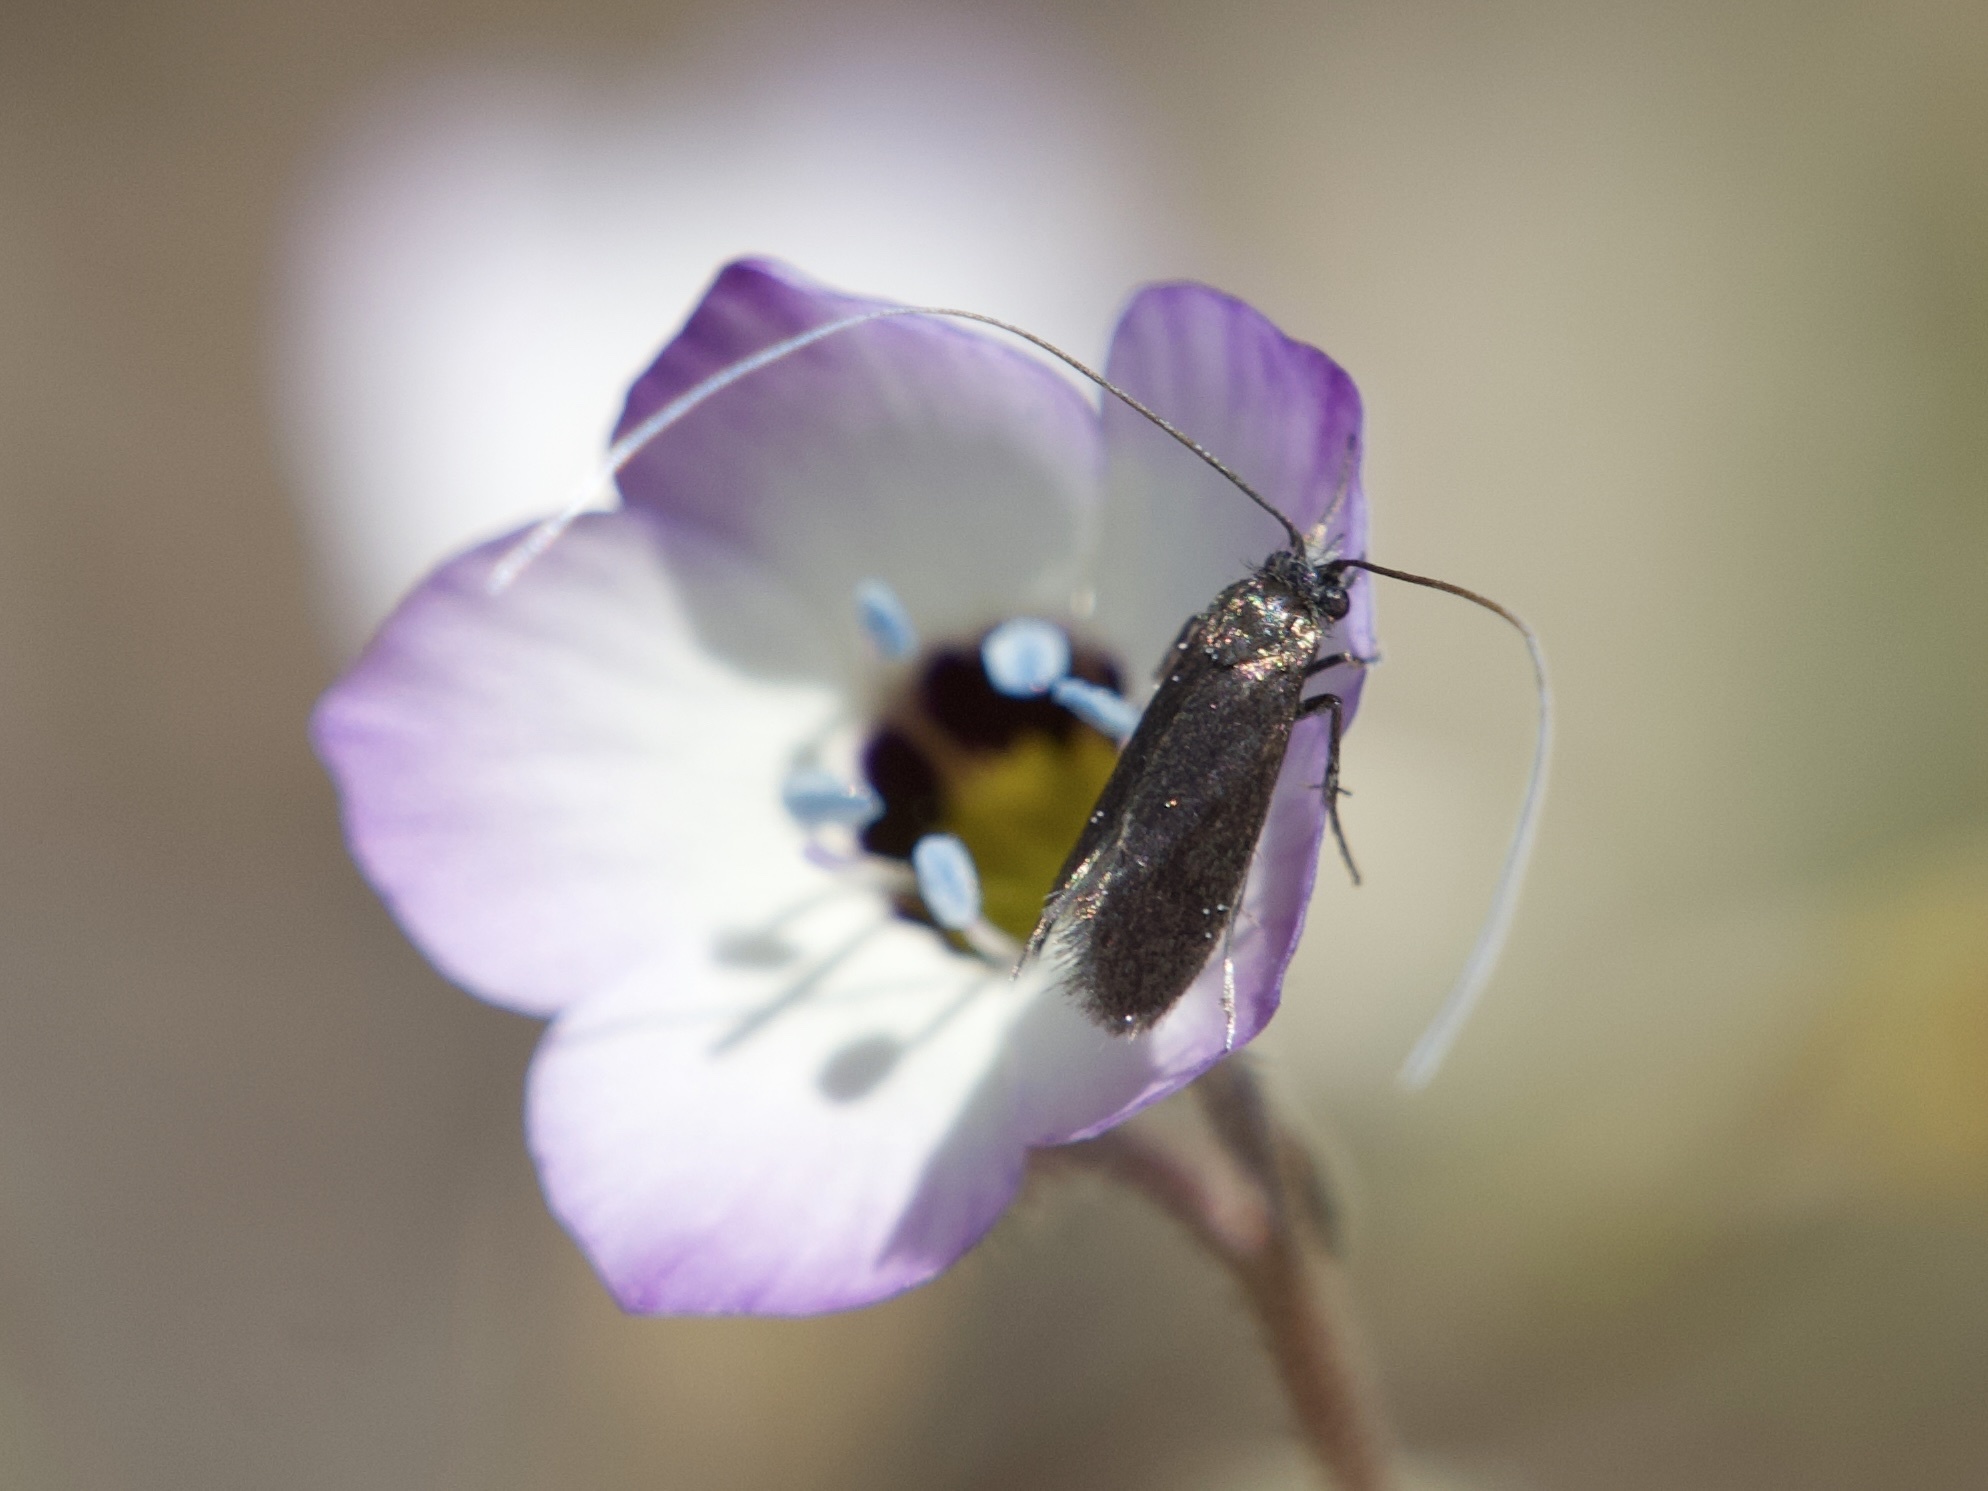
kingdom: Animalia
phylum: Arthropoda
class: Insecta
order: Lepidoptera
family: Adelidae
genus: Adela
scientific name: Adela punctiferella
